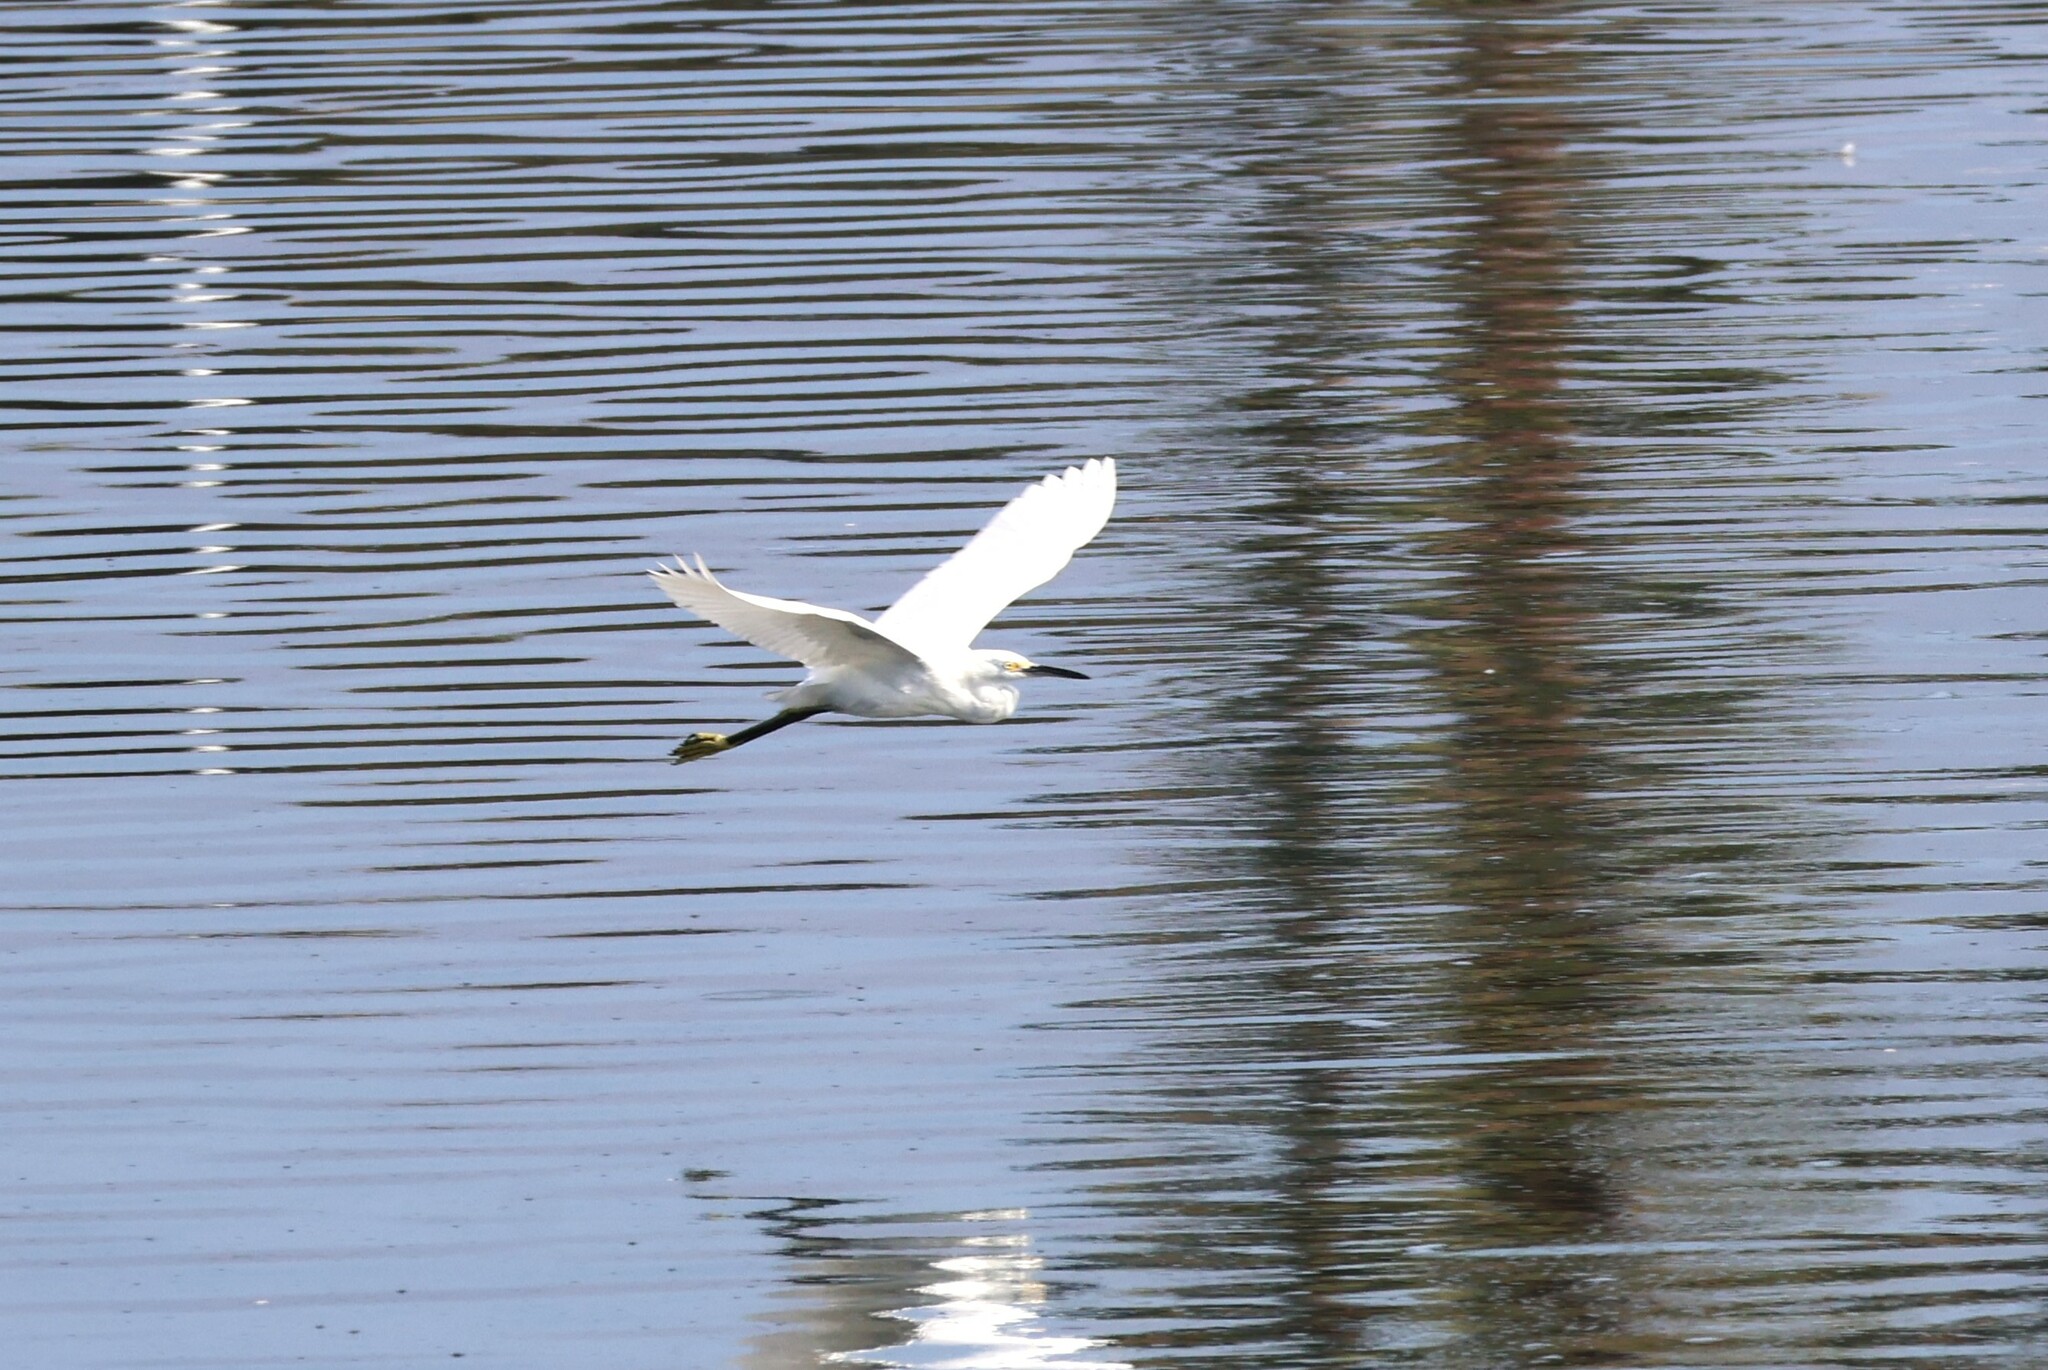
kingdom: Animalia
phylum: Chordata
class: Aves
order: Pelecaniformes
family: Ardeidae
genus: Egretta
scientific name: Egretta thula
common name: Snowy egret
